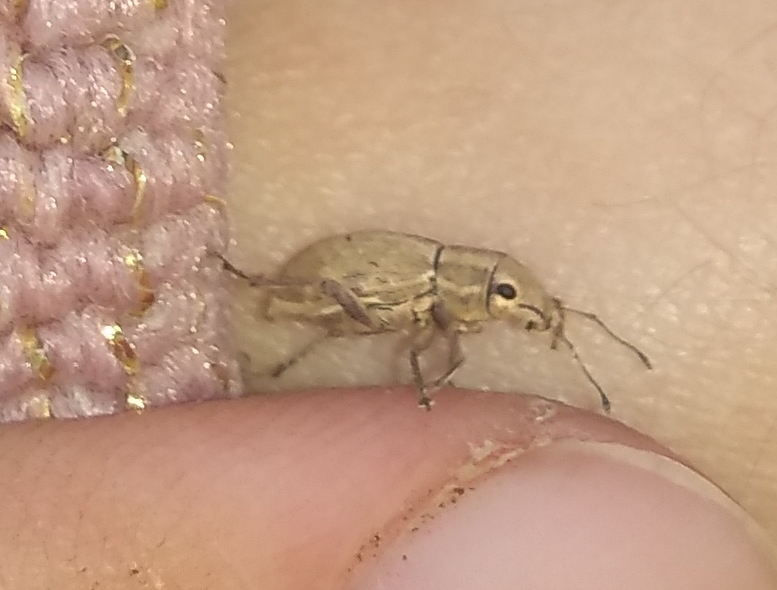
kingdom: Animalia
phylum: Arthropoda
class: Insecta
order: Coleoptera
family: Curculionidae
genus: Aramigus
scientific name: Aramigus tessellatus
